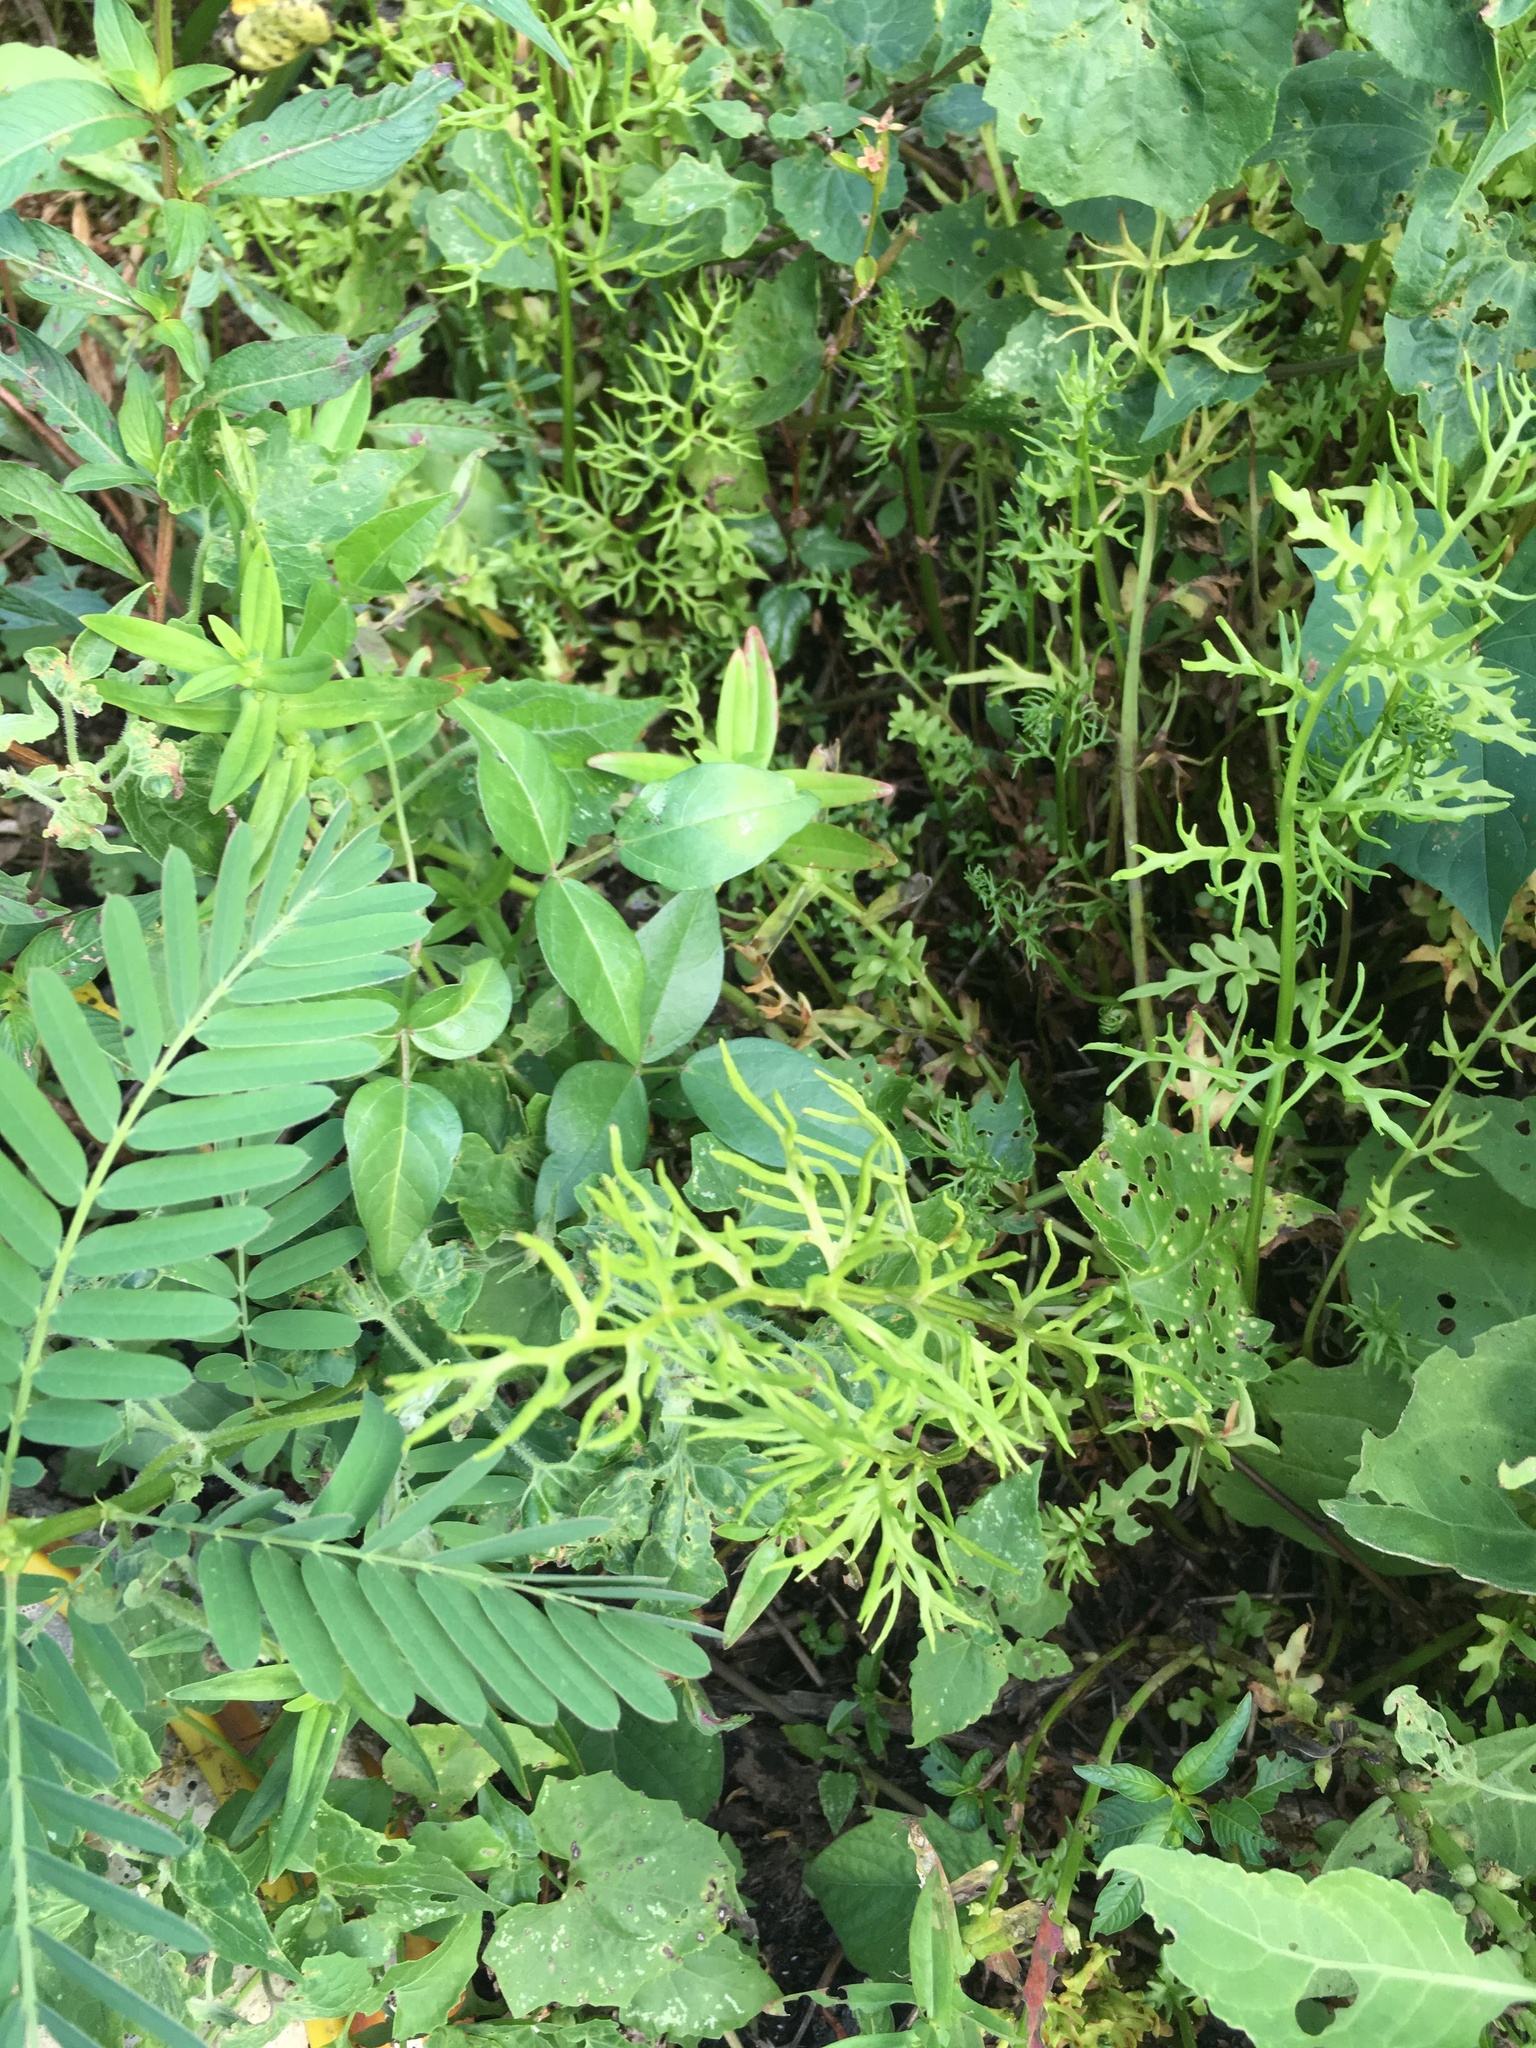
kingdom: Plantae
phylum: Tracheophyta
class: Polypodiopsida
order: Polypodiales
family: Pteridaceae
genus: Ceratopteris
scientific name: Ceratopteris thalictroides
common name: Water fern
